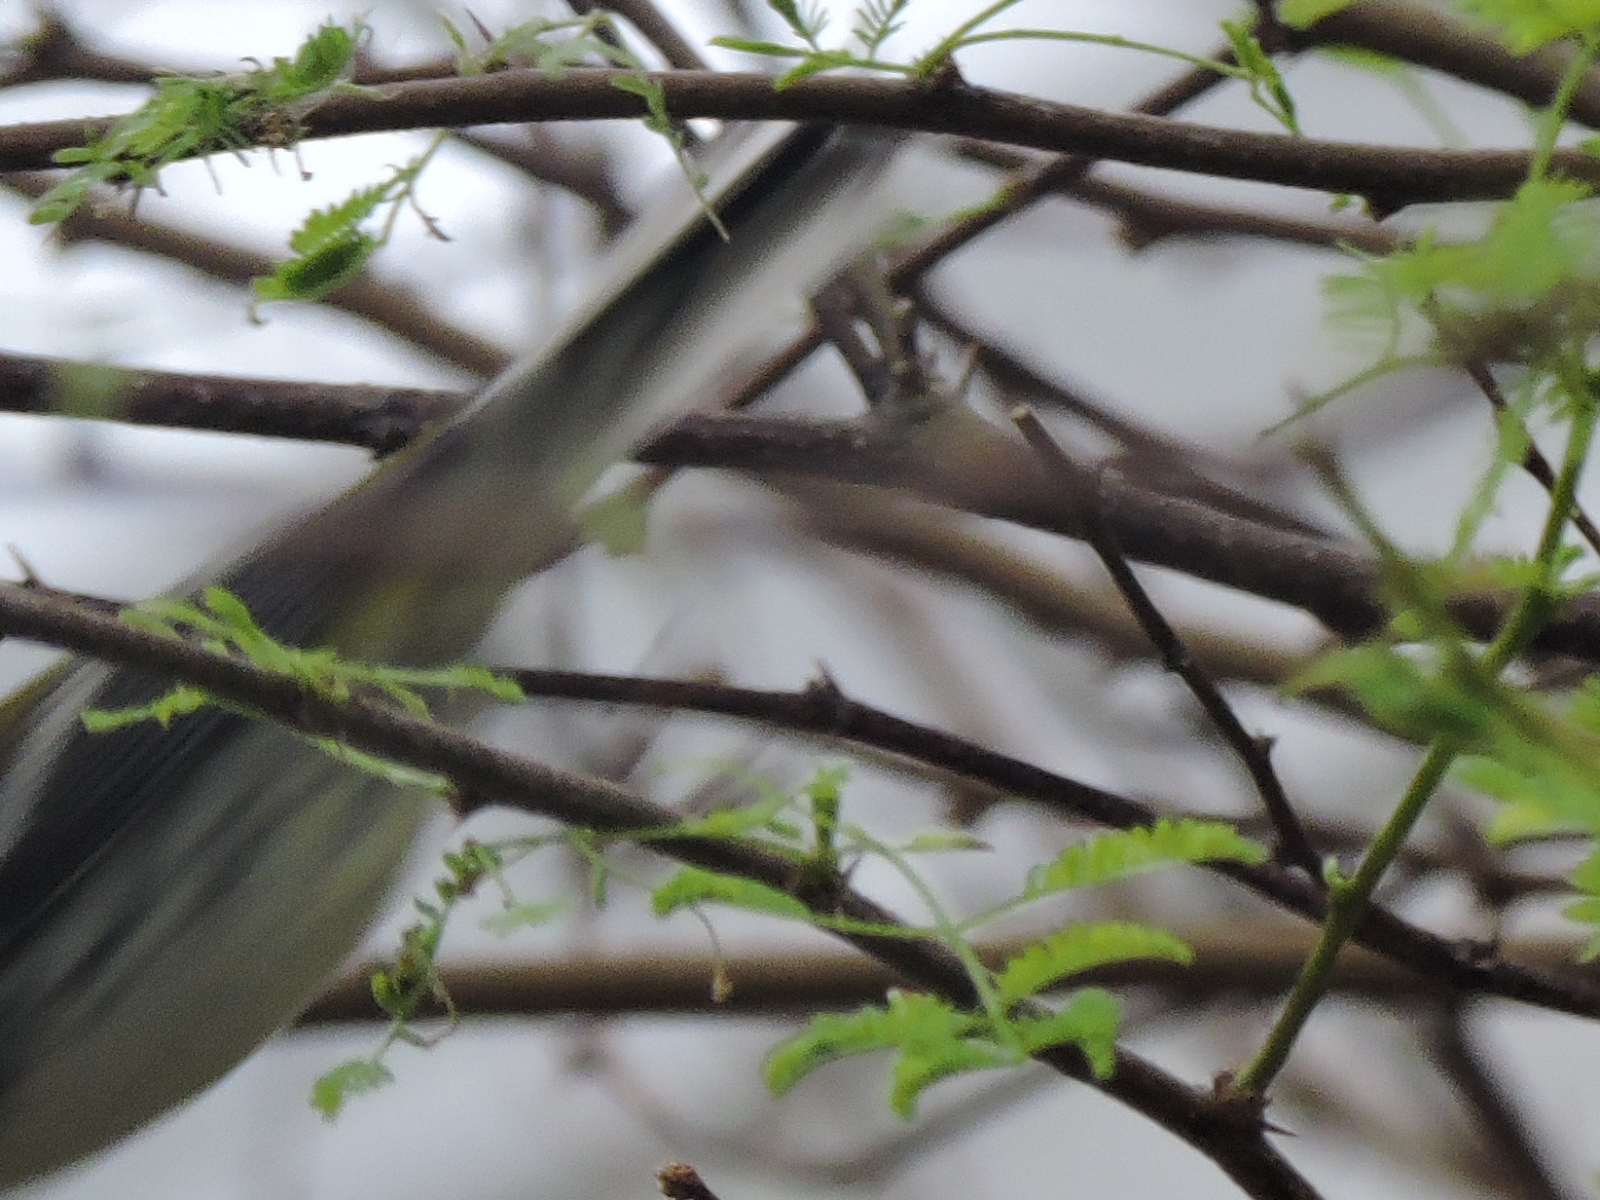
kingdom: Animalia
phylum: Chordata
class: Aves
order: Passeriformes
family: Parulidae
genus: Setophaga
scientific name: Setophaga virens
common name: Black-throated green warbler
